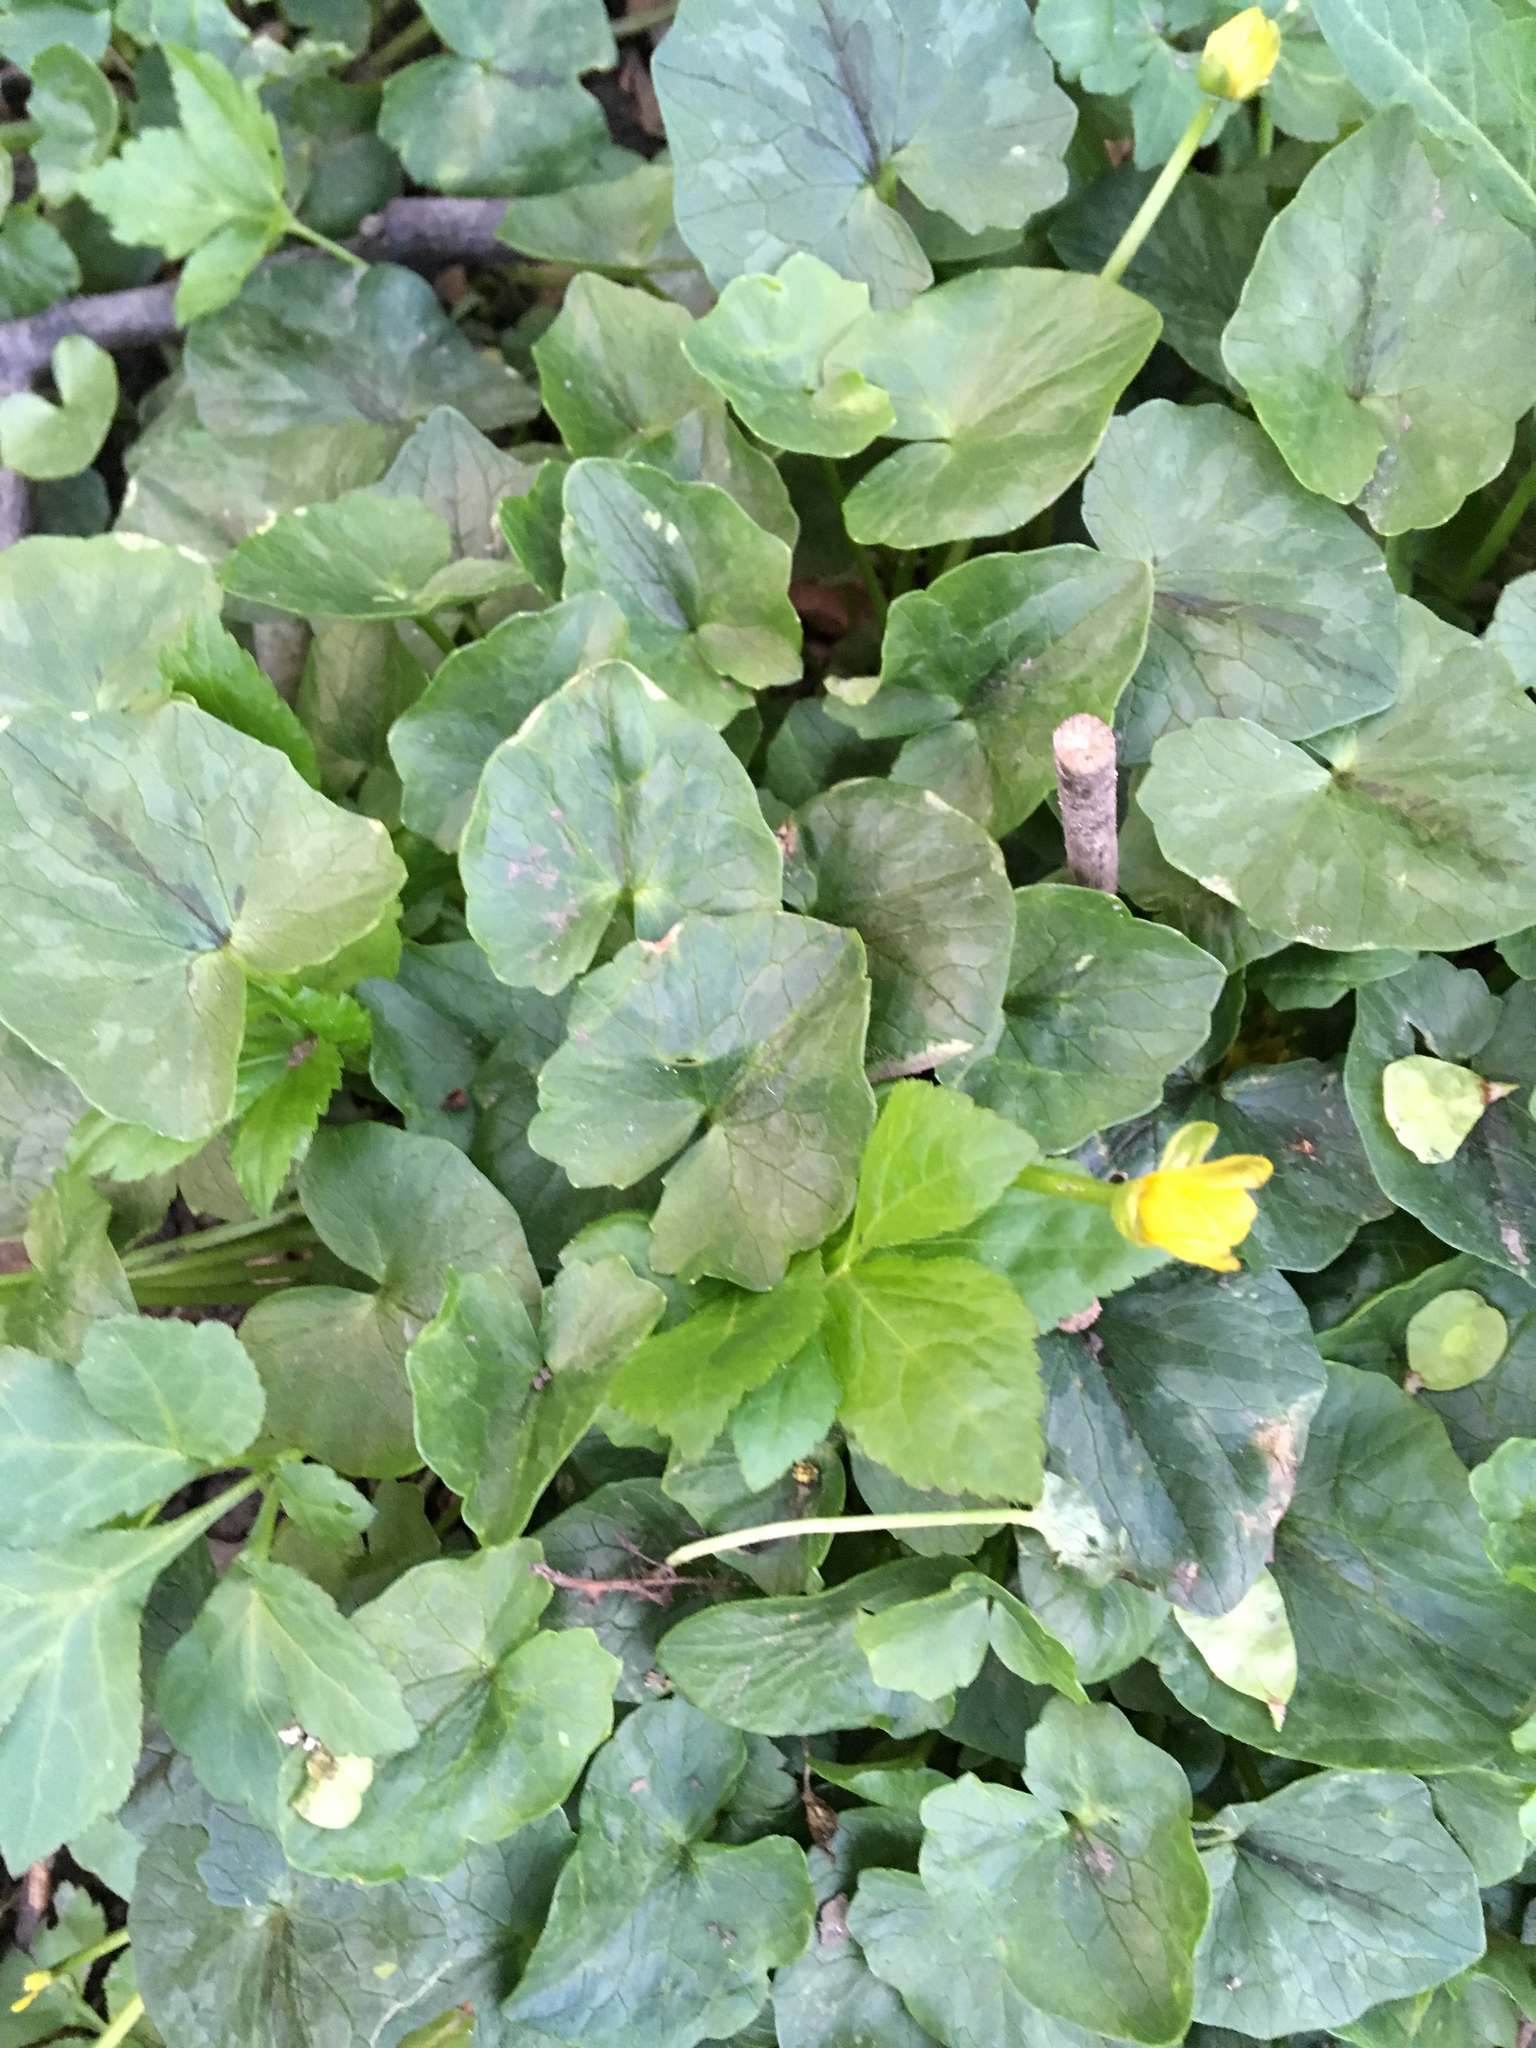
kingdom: Plantae
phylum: Tracheophyta
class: Magnoliopsida
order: Ranunculales
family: Ranunculaceae
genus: Ficaria
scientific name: Ficaria verna
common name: Lesser celandine
